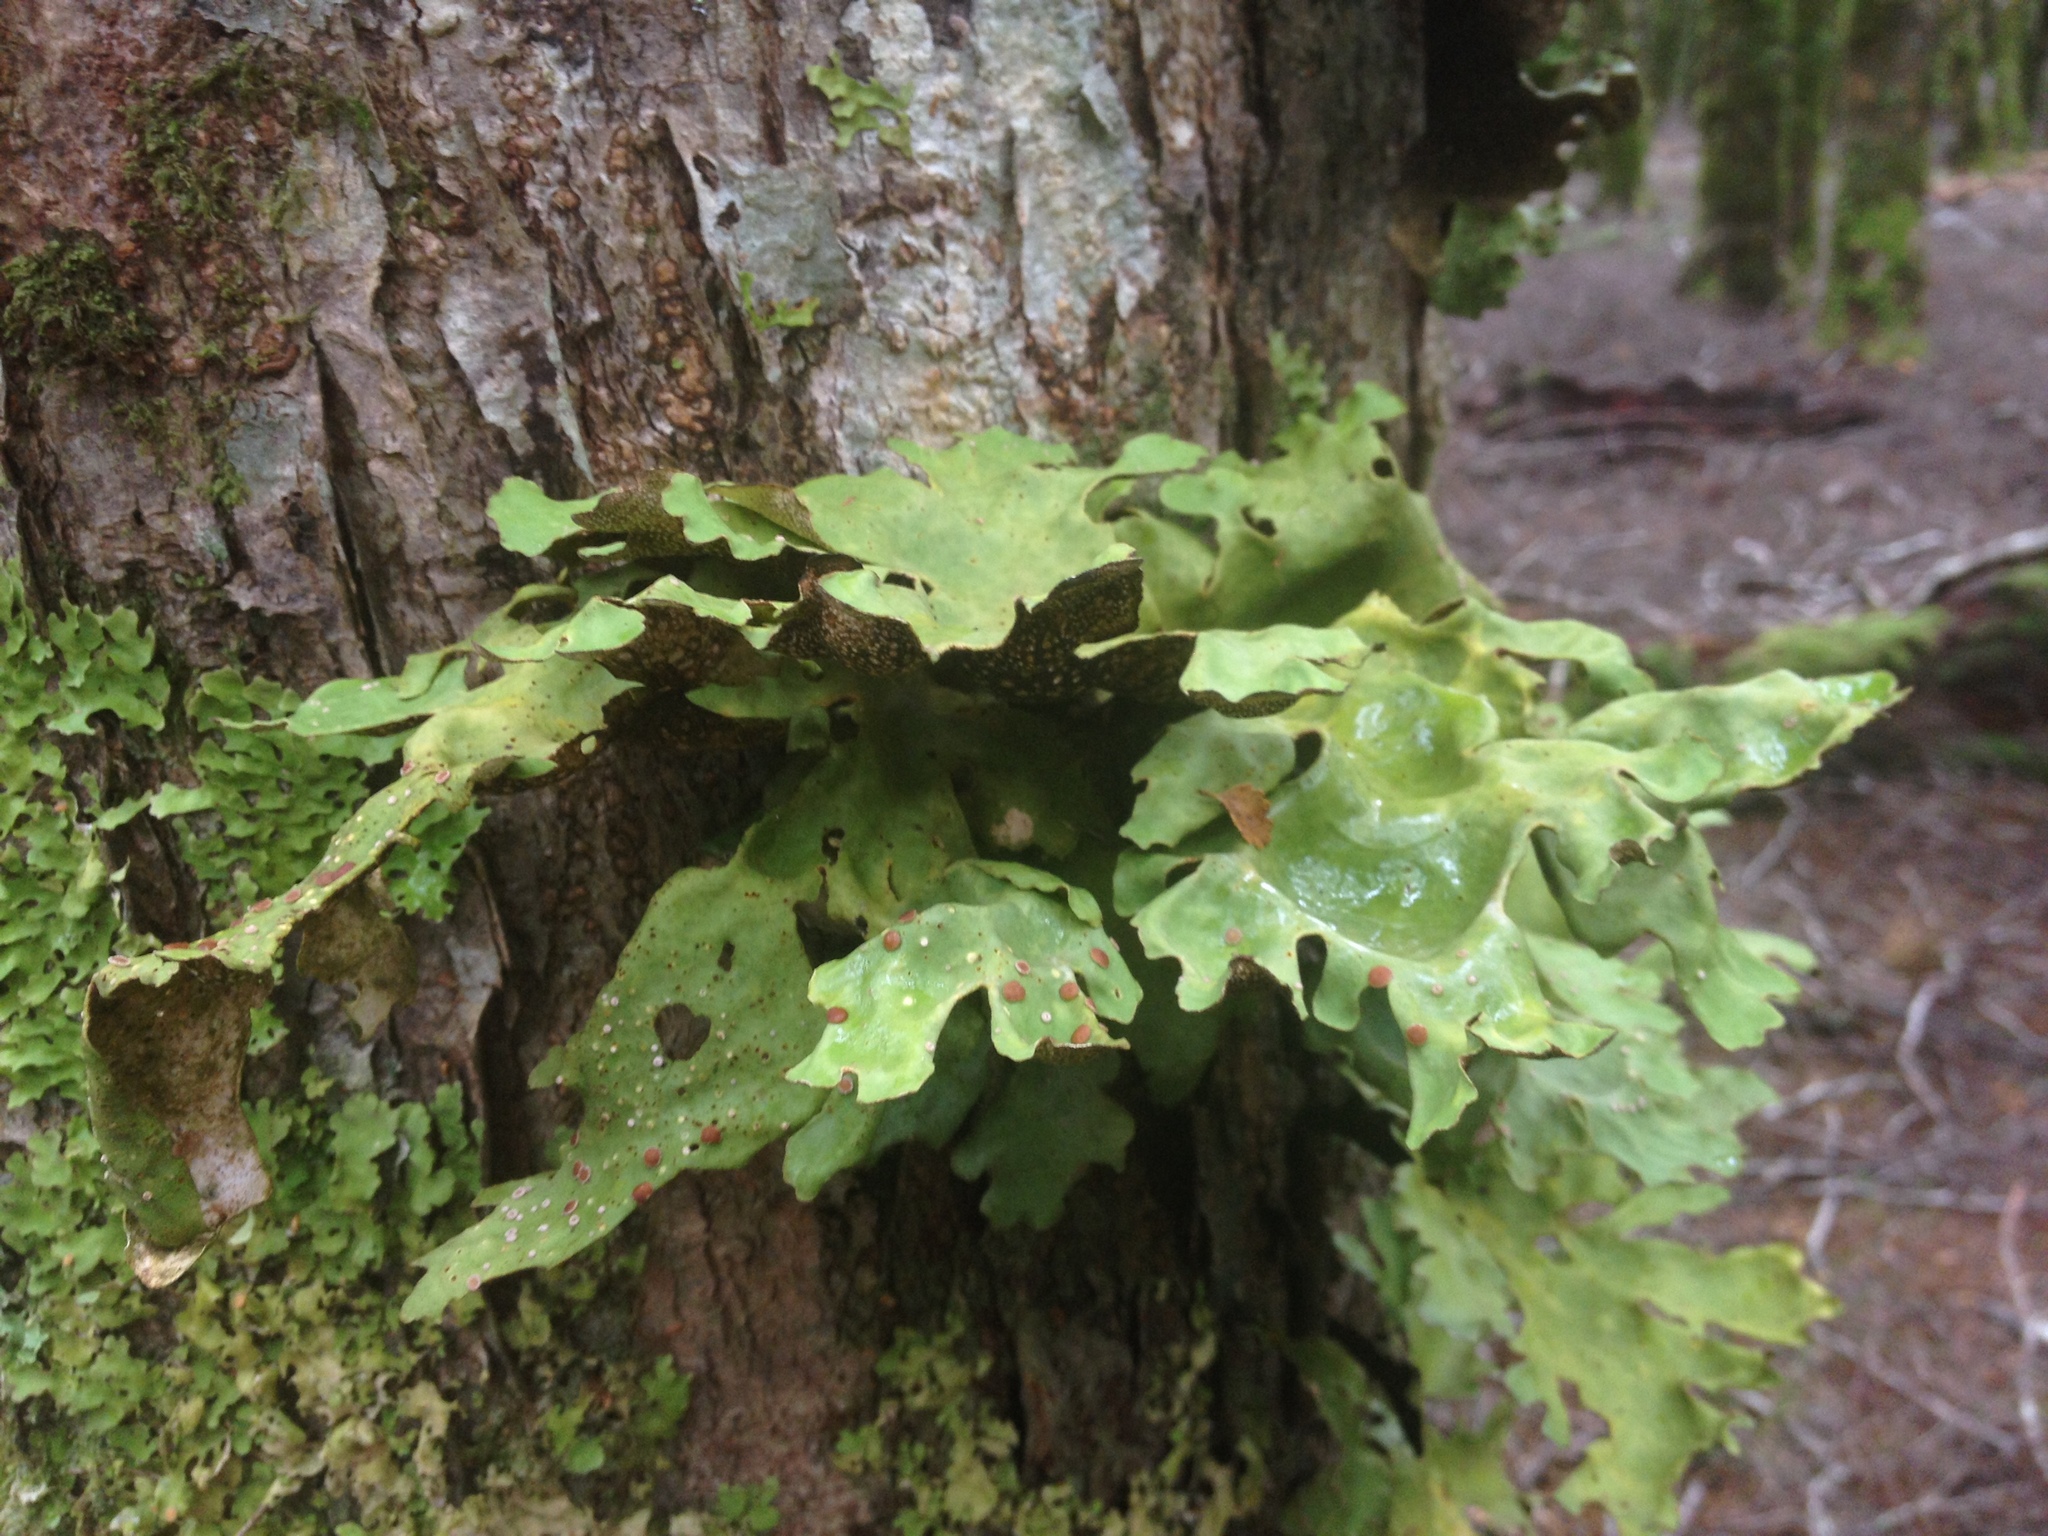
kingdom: Fungi
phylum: Ascomycota
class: Lecanoromycetes
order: Peltigerales
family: Lobariaceae
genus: Sticta
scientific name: Sticta latifrons
